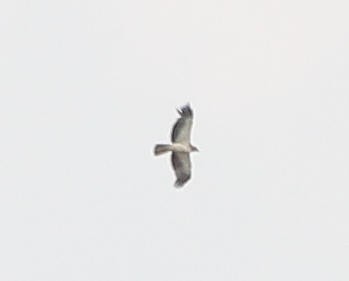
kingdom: Animalia
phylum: Chordata
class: Aves
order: Accipitriformes
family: Accipitridae
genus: Hieraaetus
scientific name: Hieraaetus pennatus
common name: Booted eagle
